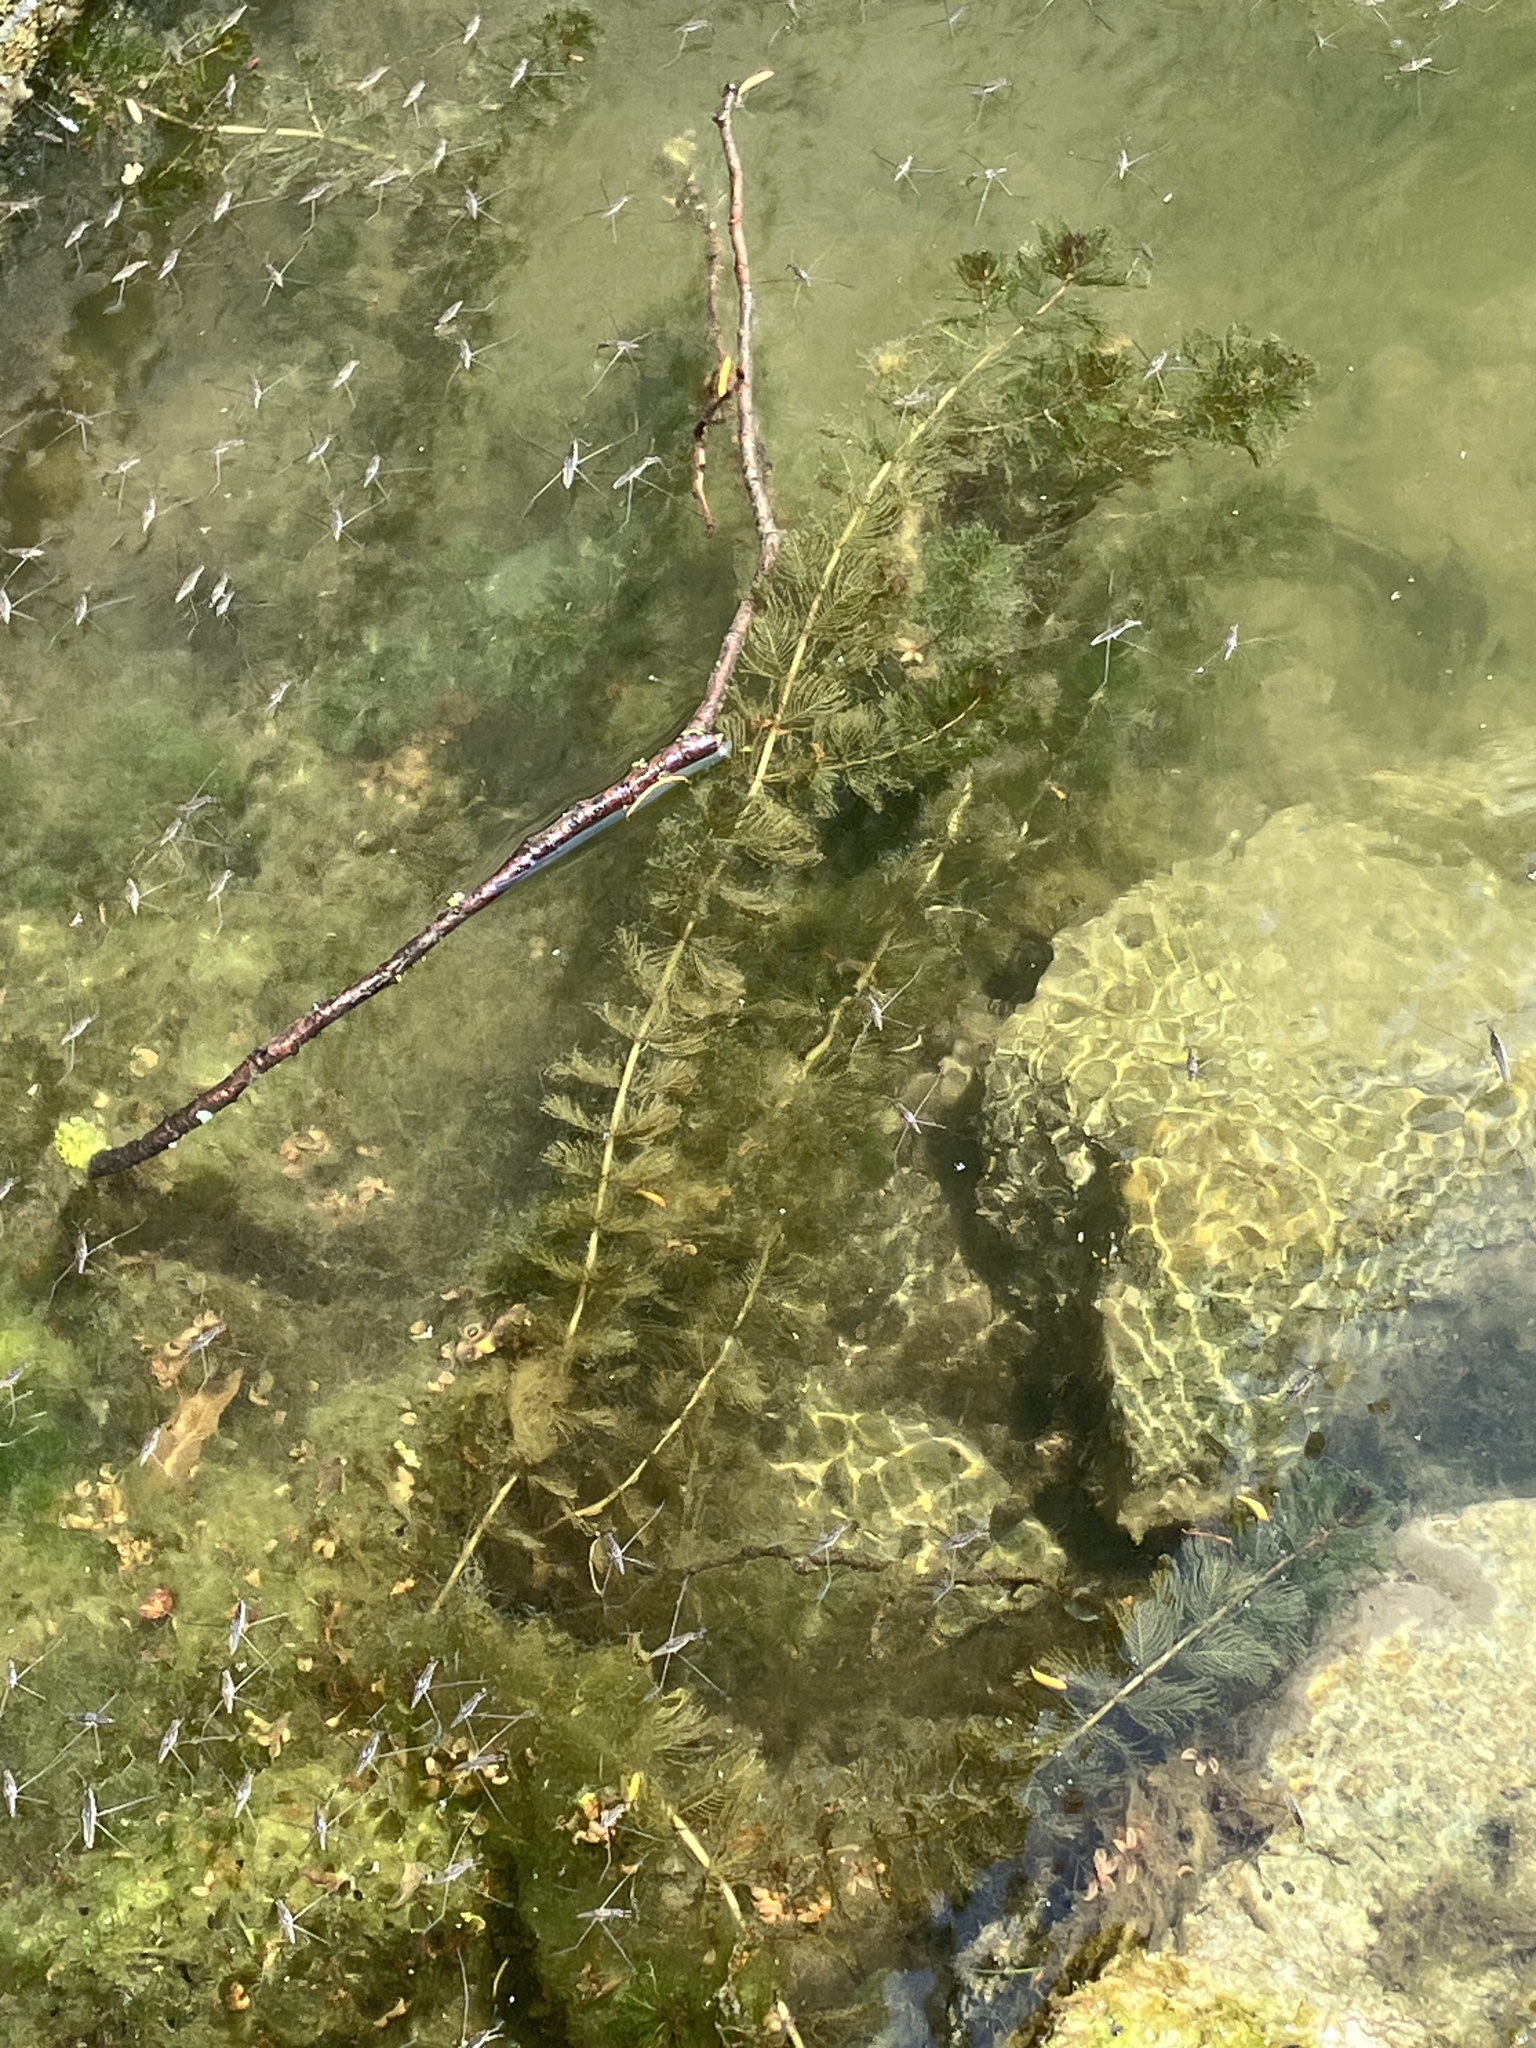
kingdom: Plantae
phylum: Tracheophyta
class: Magnoliopsida
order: Saxifragales
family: Haloragaceae
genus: Myriophyllum
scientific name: Myriophyllum spicatum
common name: Spiked water-milfoil
